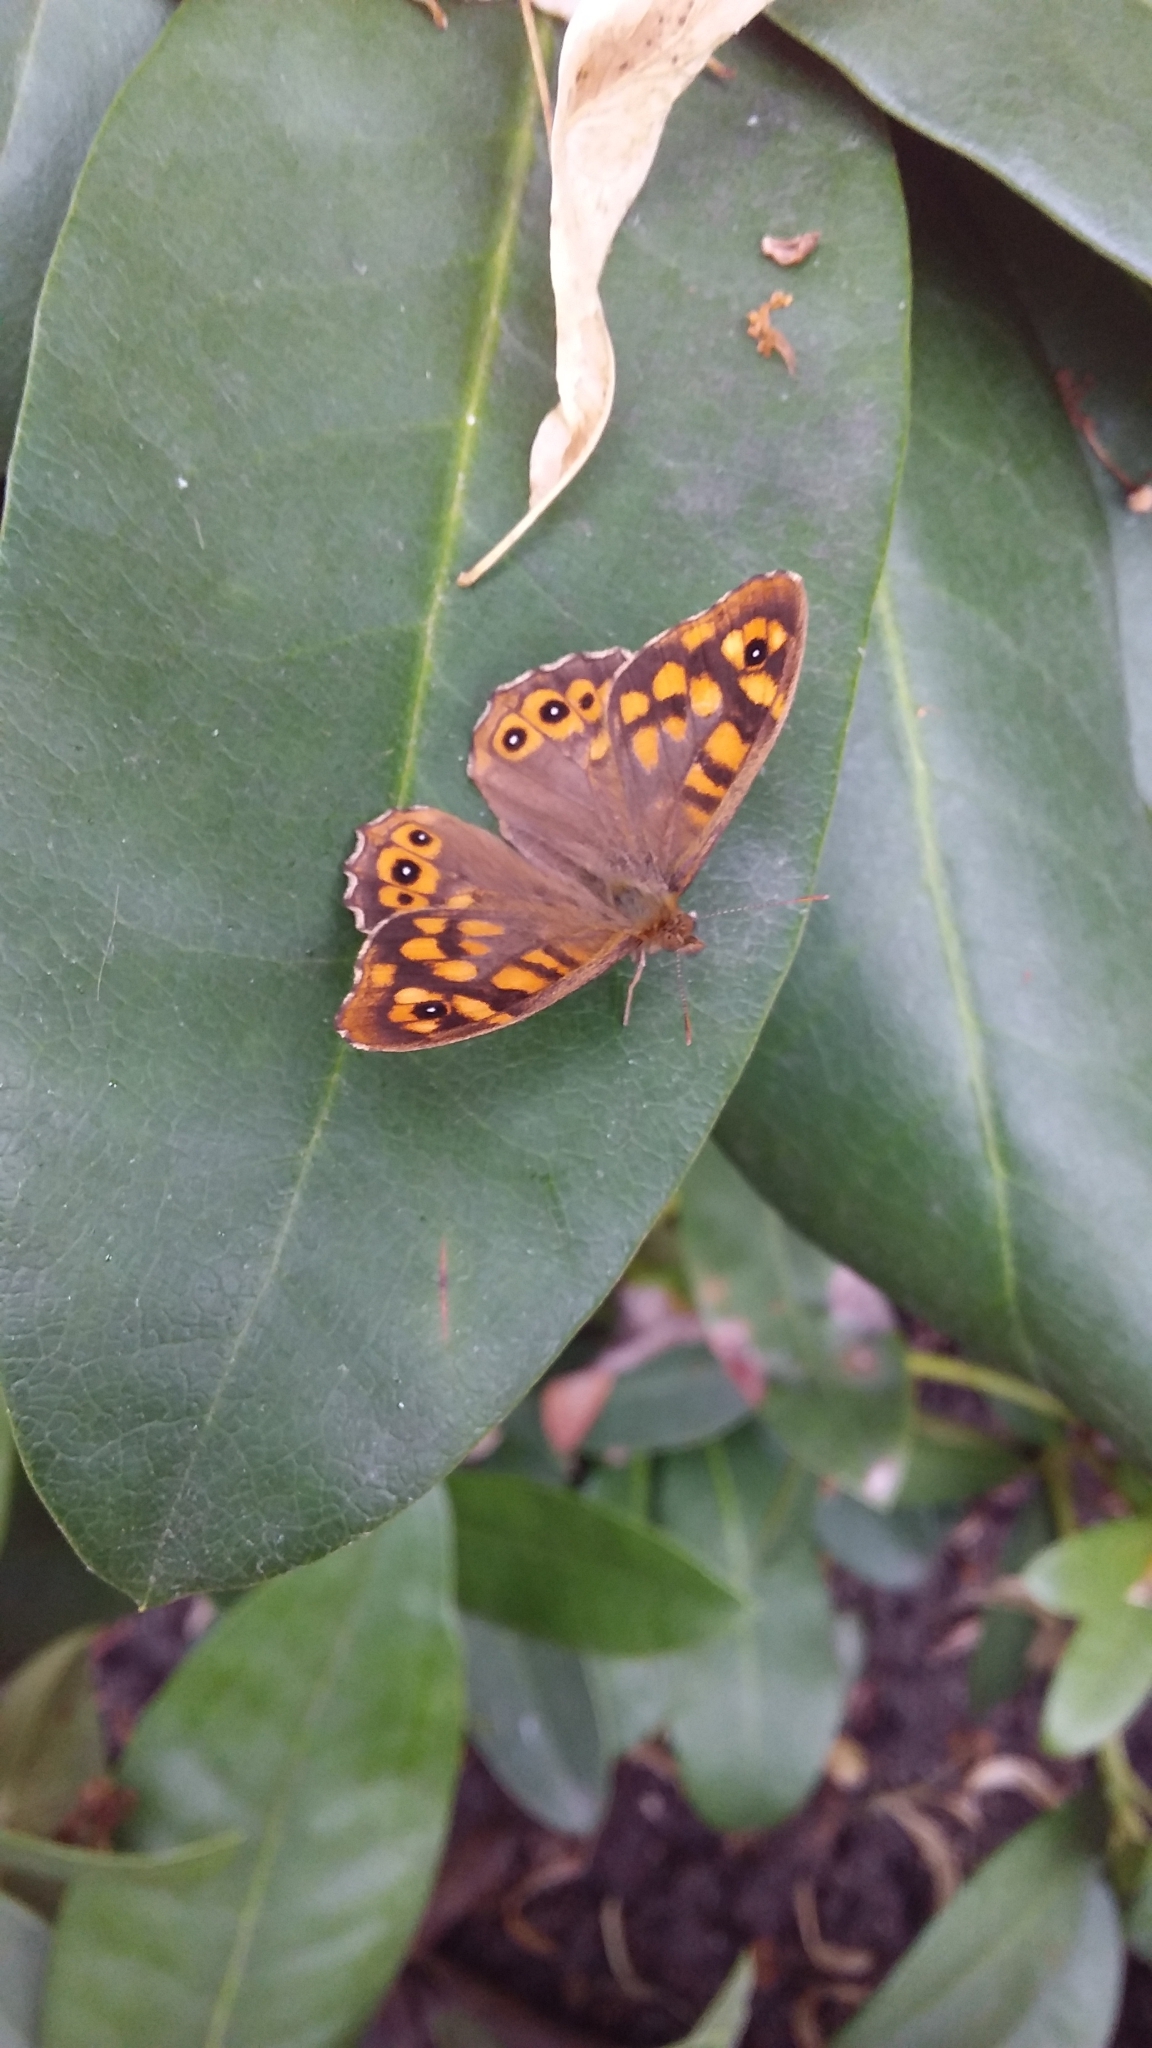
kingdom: Animalia
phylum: Arthropoda
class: Insecta
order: Lepidoptera
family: Nymphalidae
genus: Pararge
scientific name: Pararge aegeria
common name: Speckled wood
